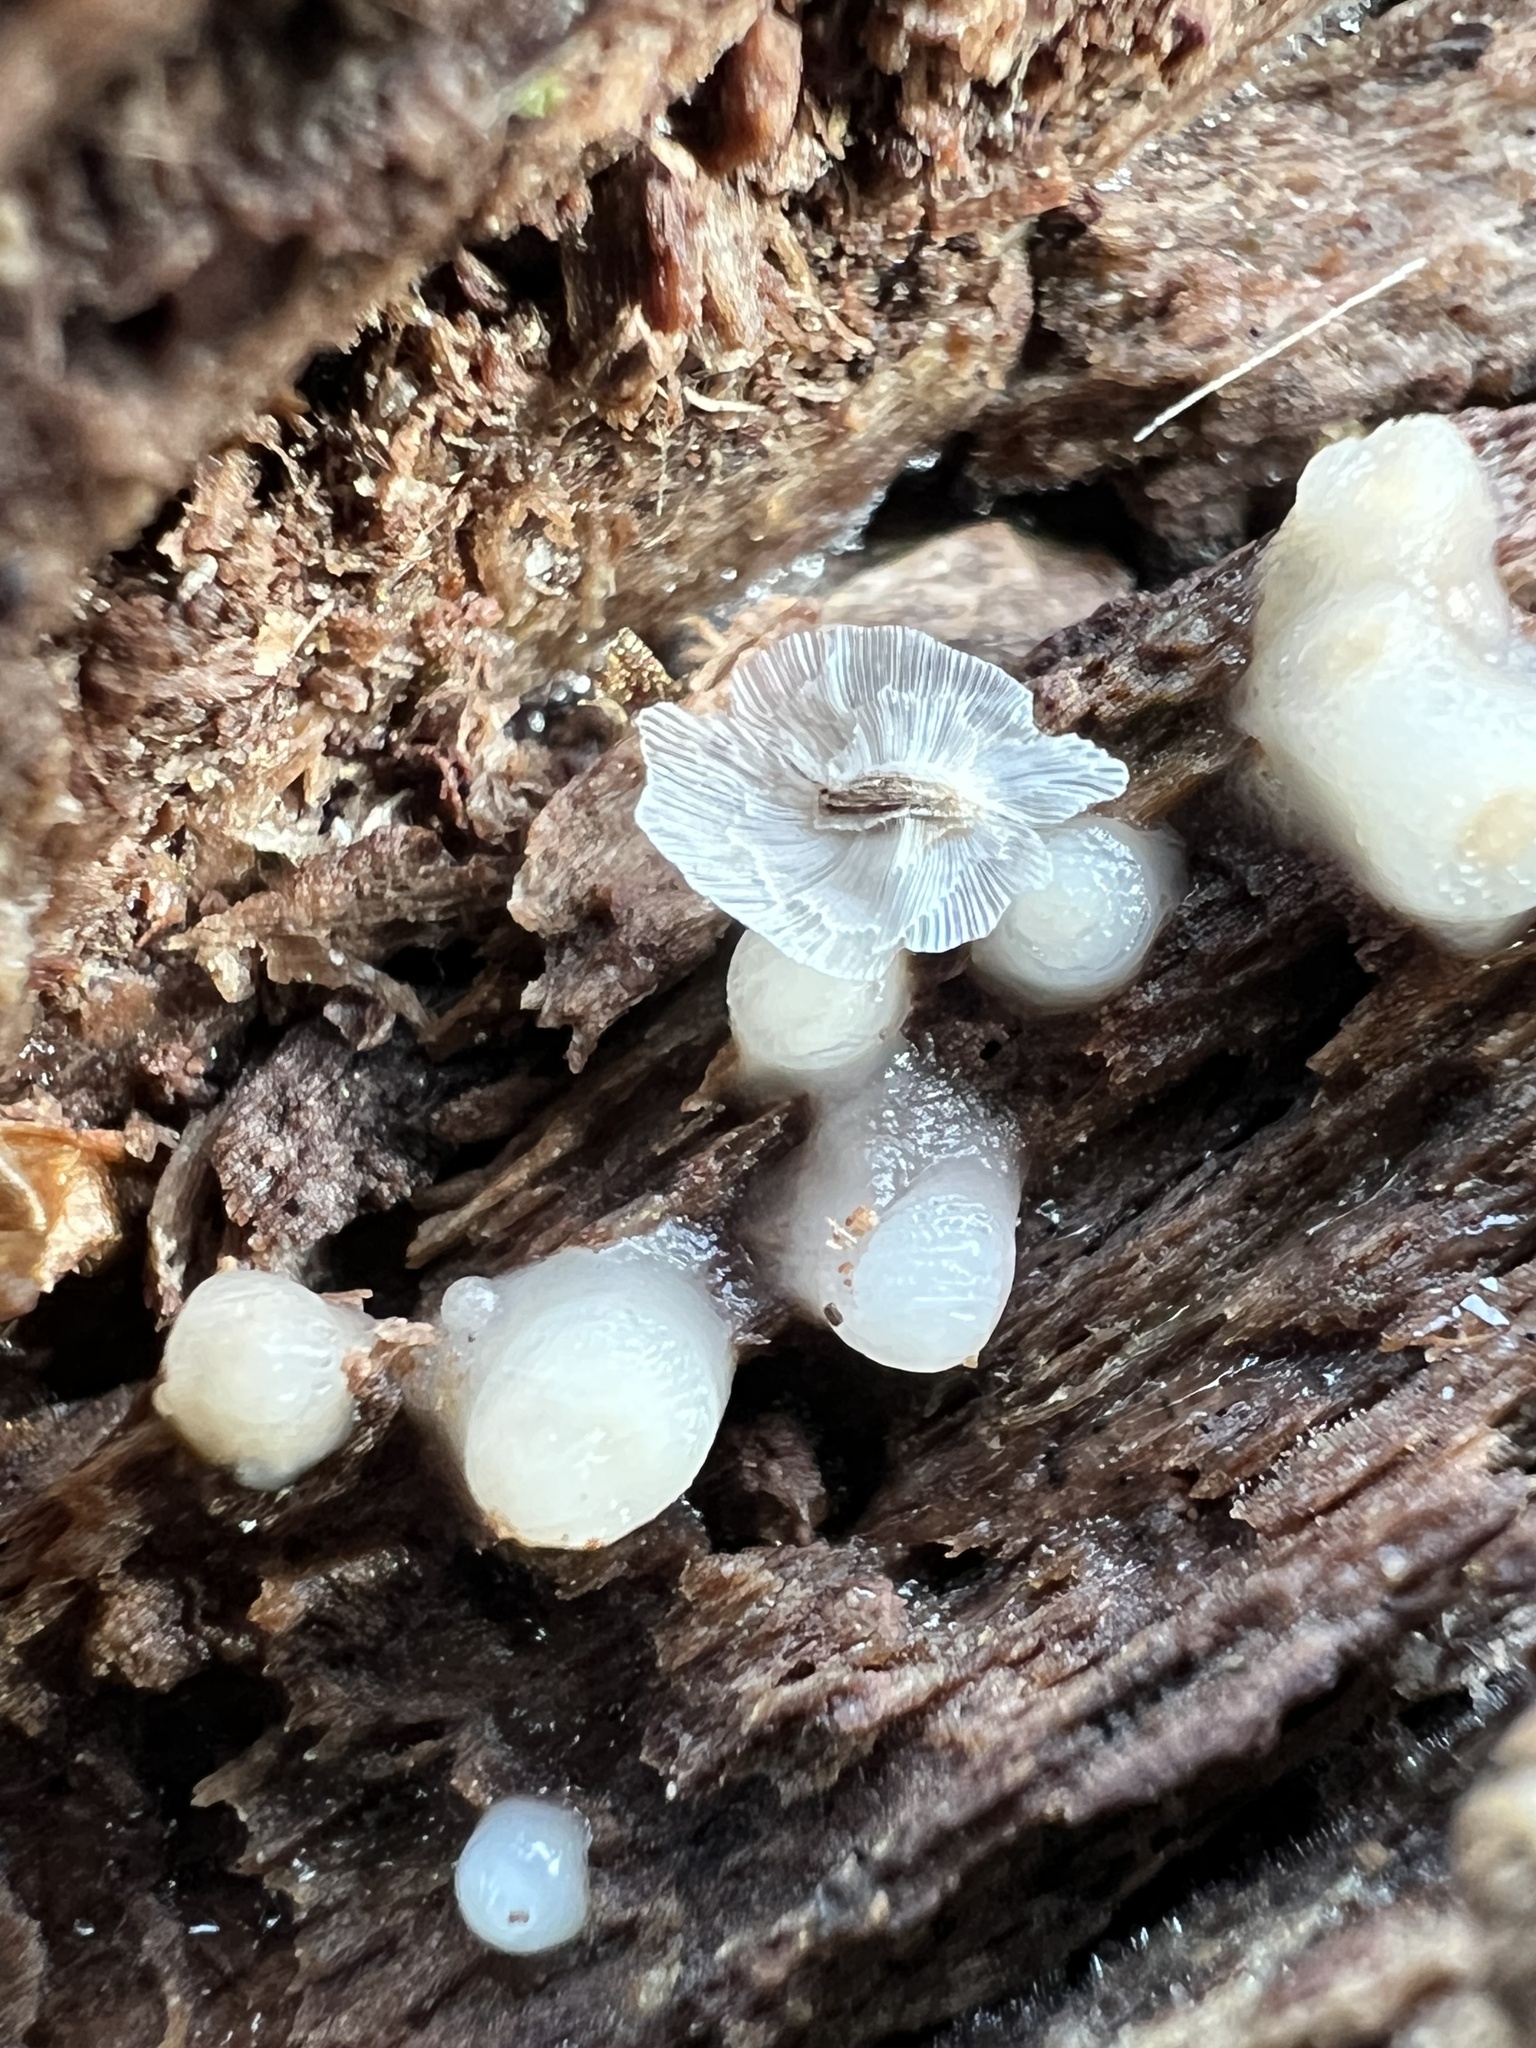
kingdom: Fungi
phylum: Basidiomycota
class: Atractiellomycetes
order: Atractiellales
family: Phleogenaceae
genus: Helicogloea
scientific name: Helicogloea compressa
